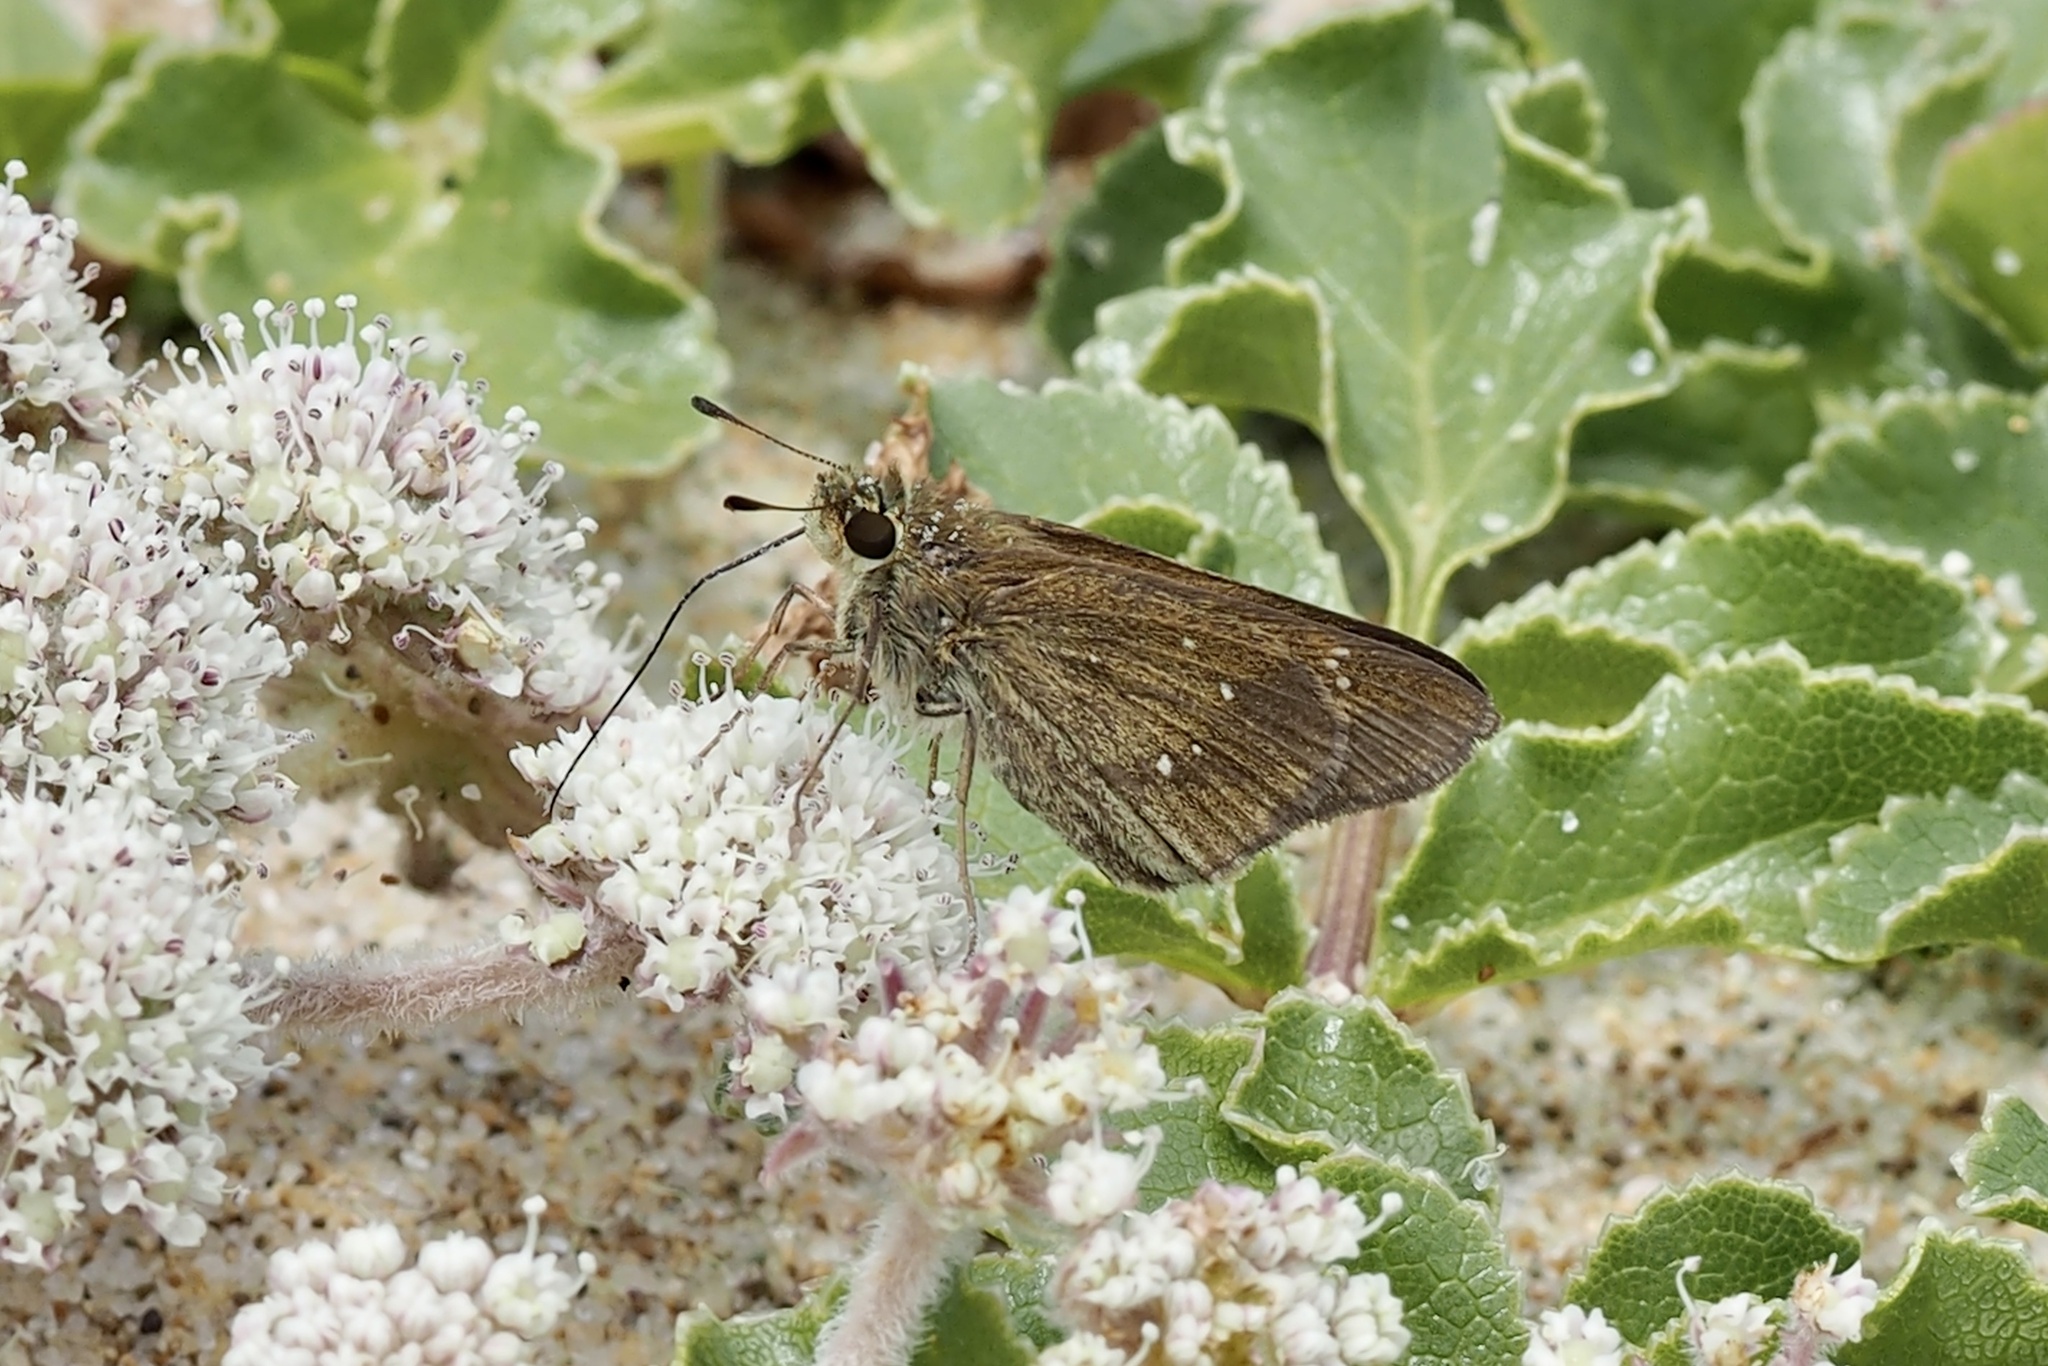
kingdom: Animalia
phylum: Arthropoda
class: Insecta
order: Lepidoptera
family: Hesperiidae
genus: Pelopidas
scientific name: Pelopidas mathias
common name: Black-branded swift
